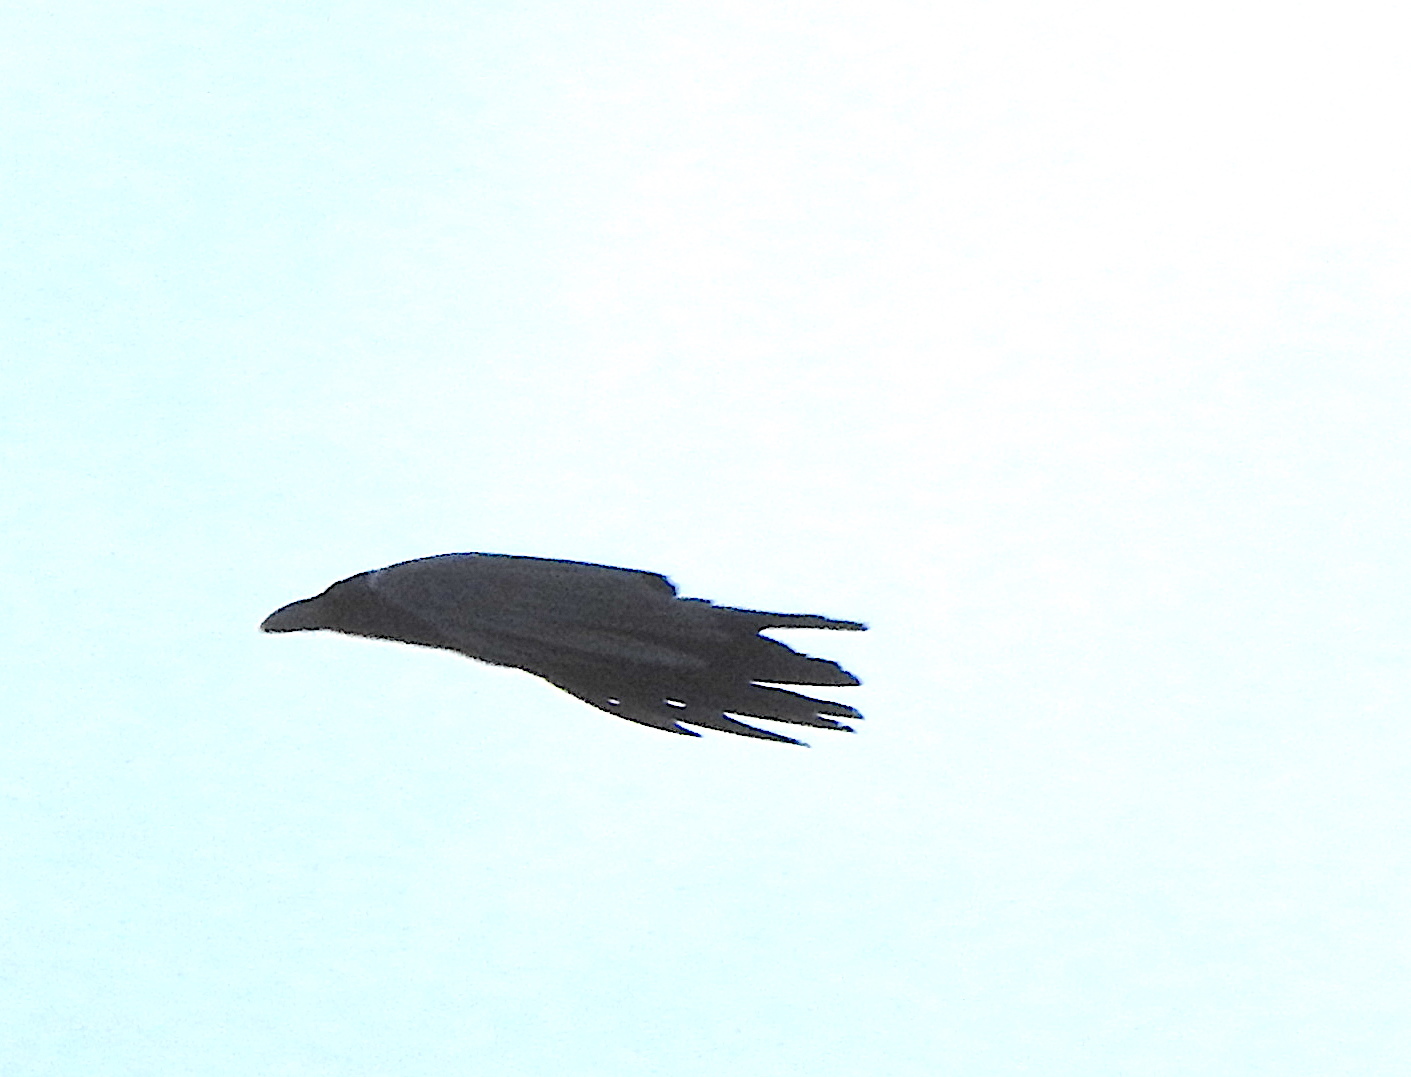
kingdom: Animalia
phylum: Chordata
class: Aves
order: Passeriformes
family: Corvidae
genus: Corvus
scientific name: Corvus macrorhynchos
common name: Large-billed crow
